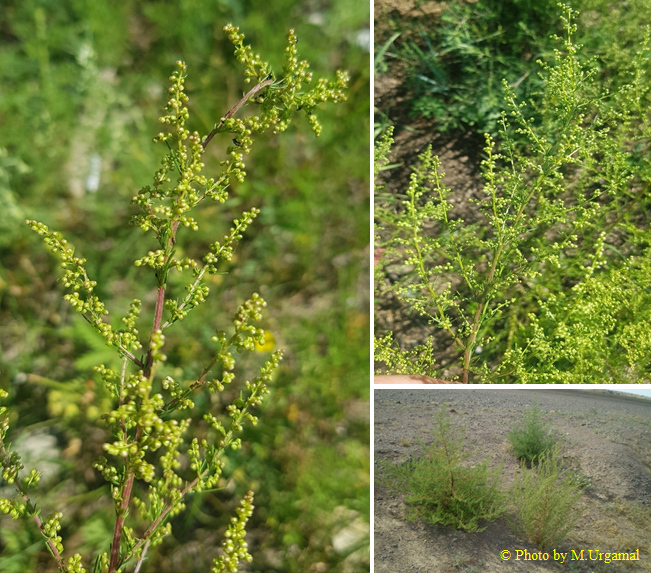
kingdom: Plantae
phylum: Tracheophyta
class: Magnoliopsida
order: Asterales
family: Asteraceae
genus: Artemisia
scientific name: Artemisia scoparia
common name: Redstem wormwood
